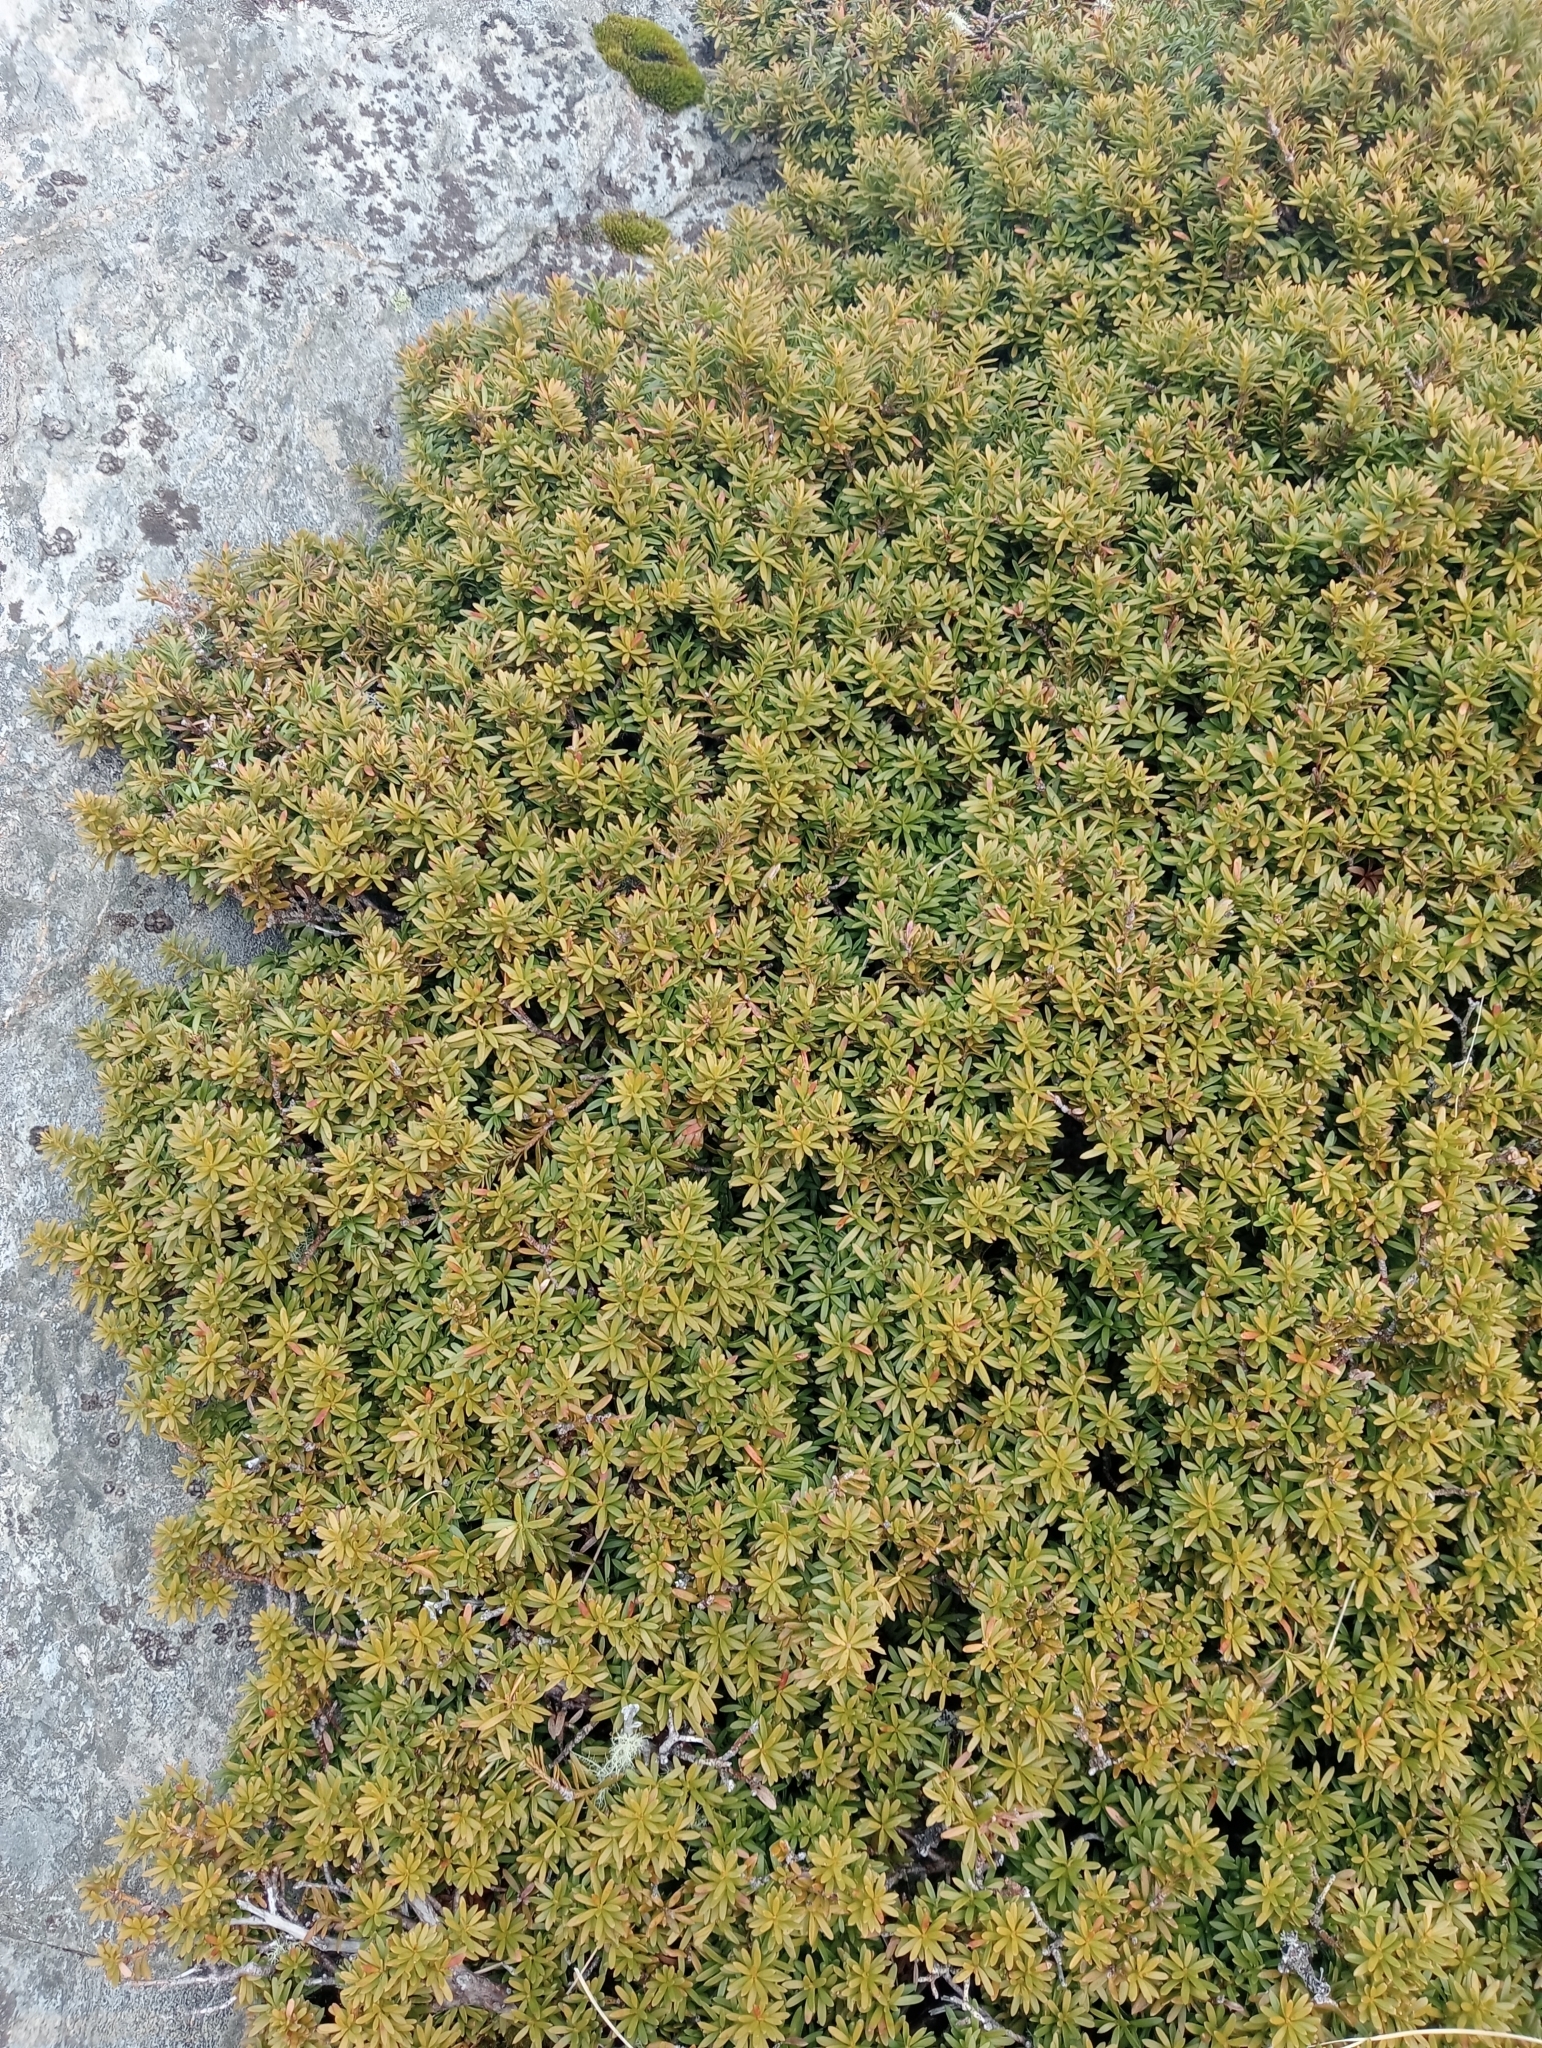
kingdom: Plantae
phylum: Tracheophyta
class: Pinopsida
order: Pinales
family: Podocarpaceae
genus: Podocarpus
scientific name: Podocarpus nivalis
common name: Alpine totara
